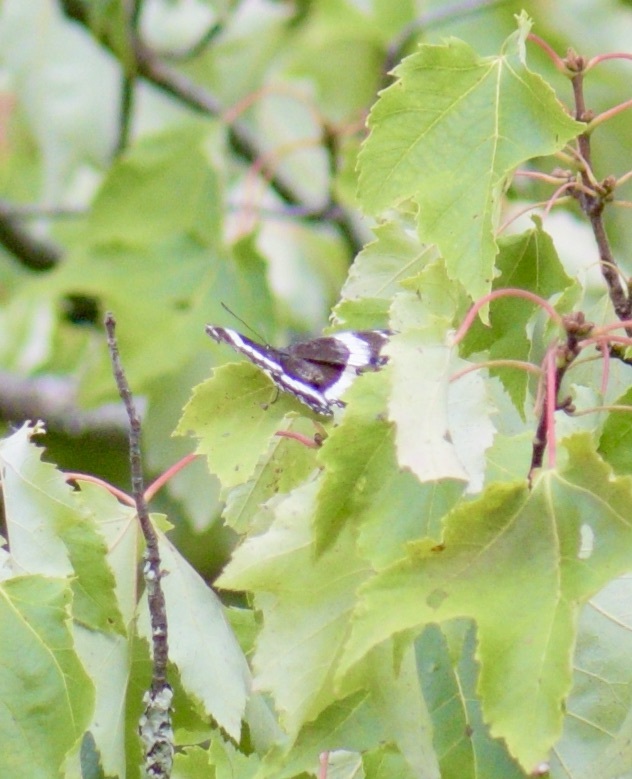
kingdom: Animalia
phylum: Arthropoda
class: Insecta
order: Lepidoptera
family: Nymphalidae
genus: Limenitis
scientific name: Limenitis arthemis
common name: Red-spotted admiral
